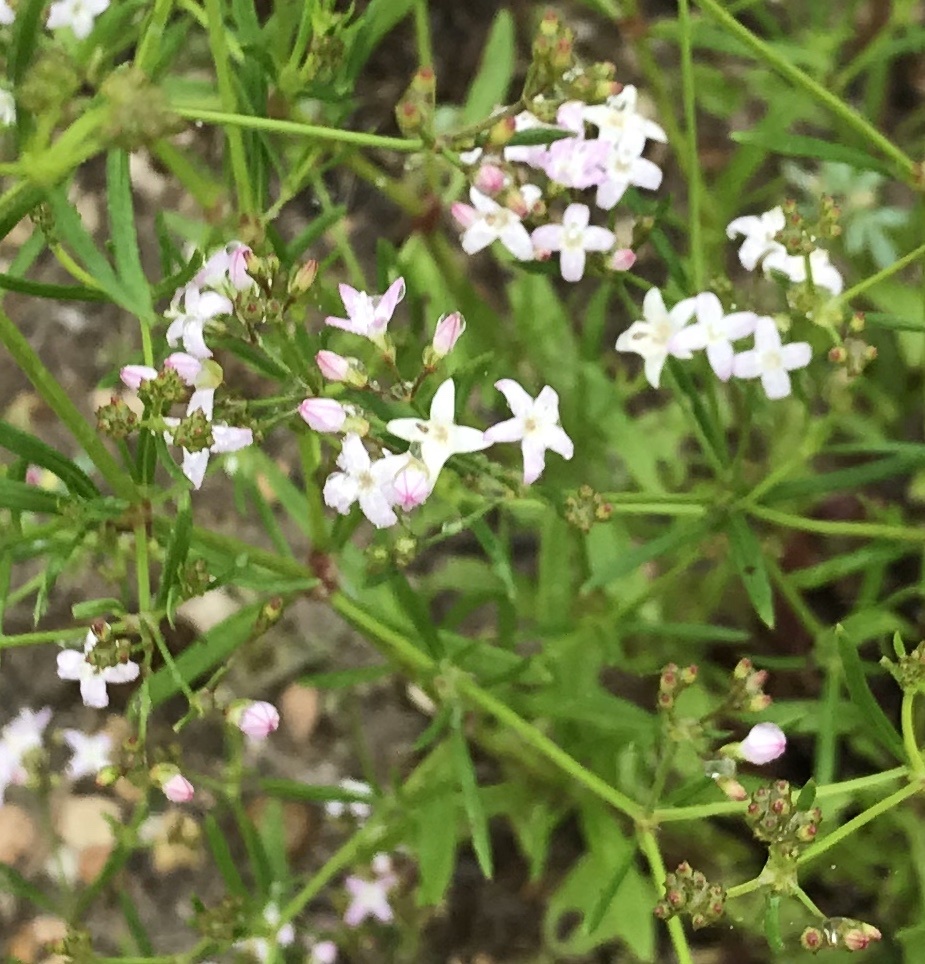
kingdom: Plantae
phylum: Tracheophyta
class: Magnoliopsida
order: Gentianales
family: Rubiaceae
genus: Stenaria
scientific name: Stenaria nigricans
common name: Diamondflowers
